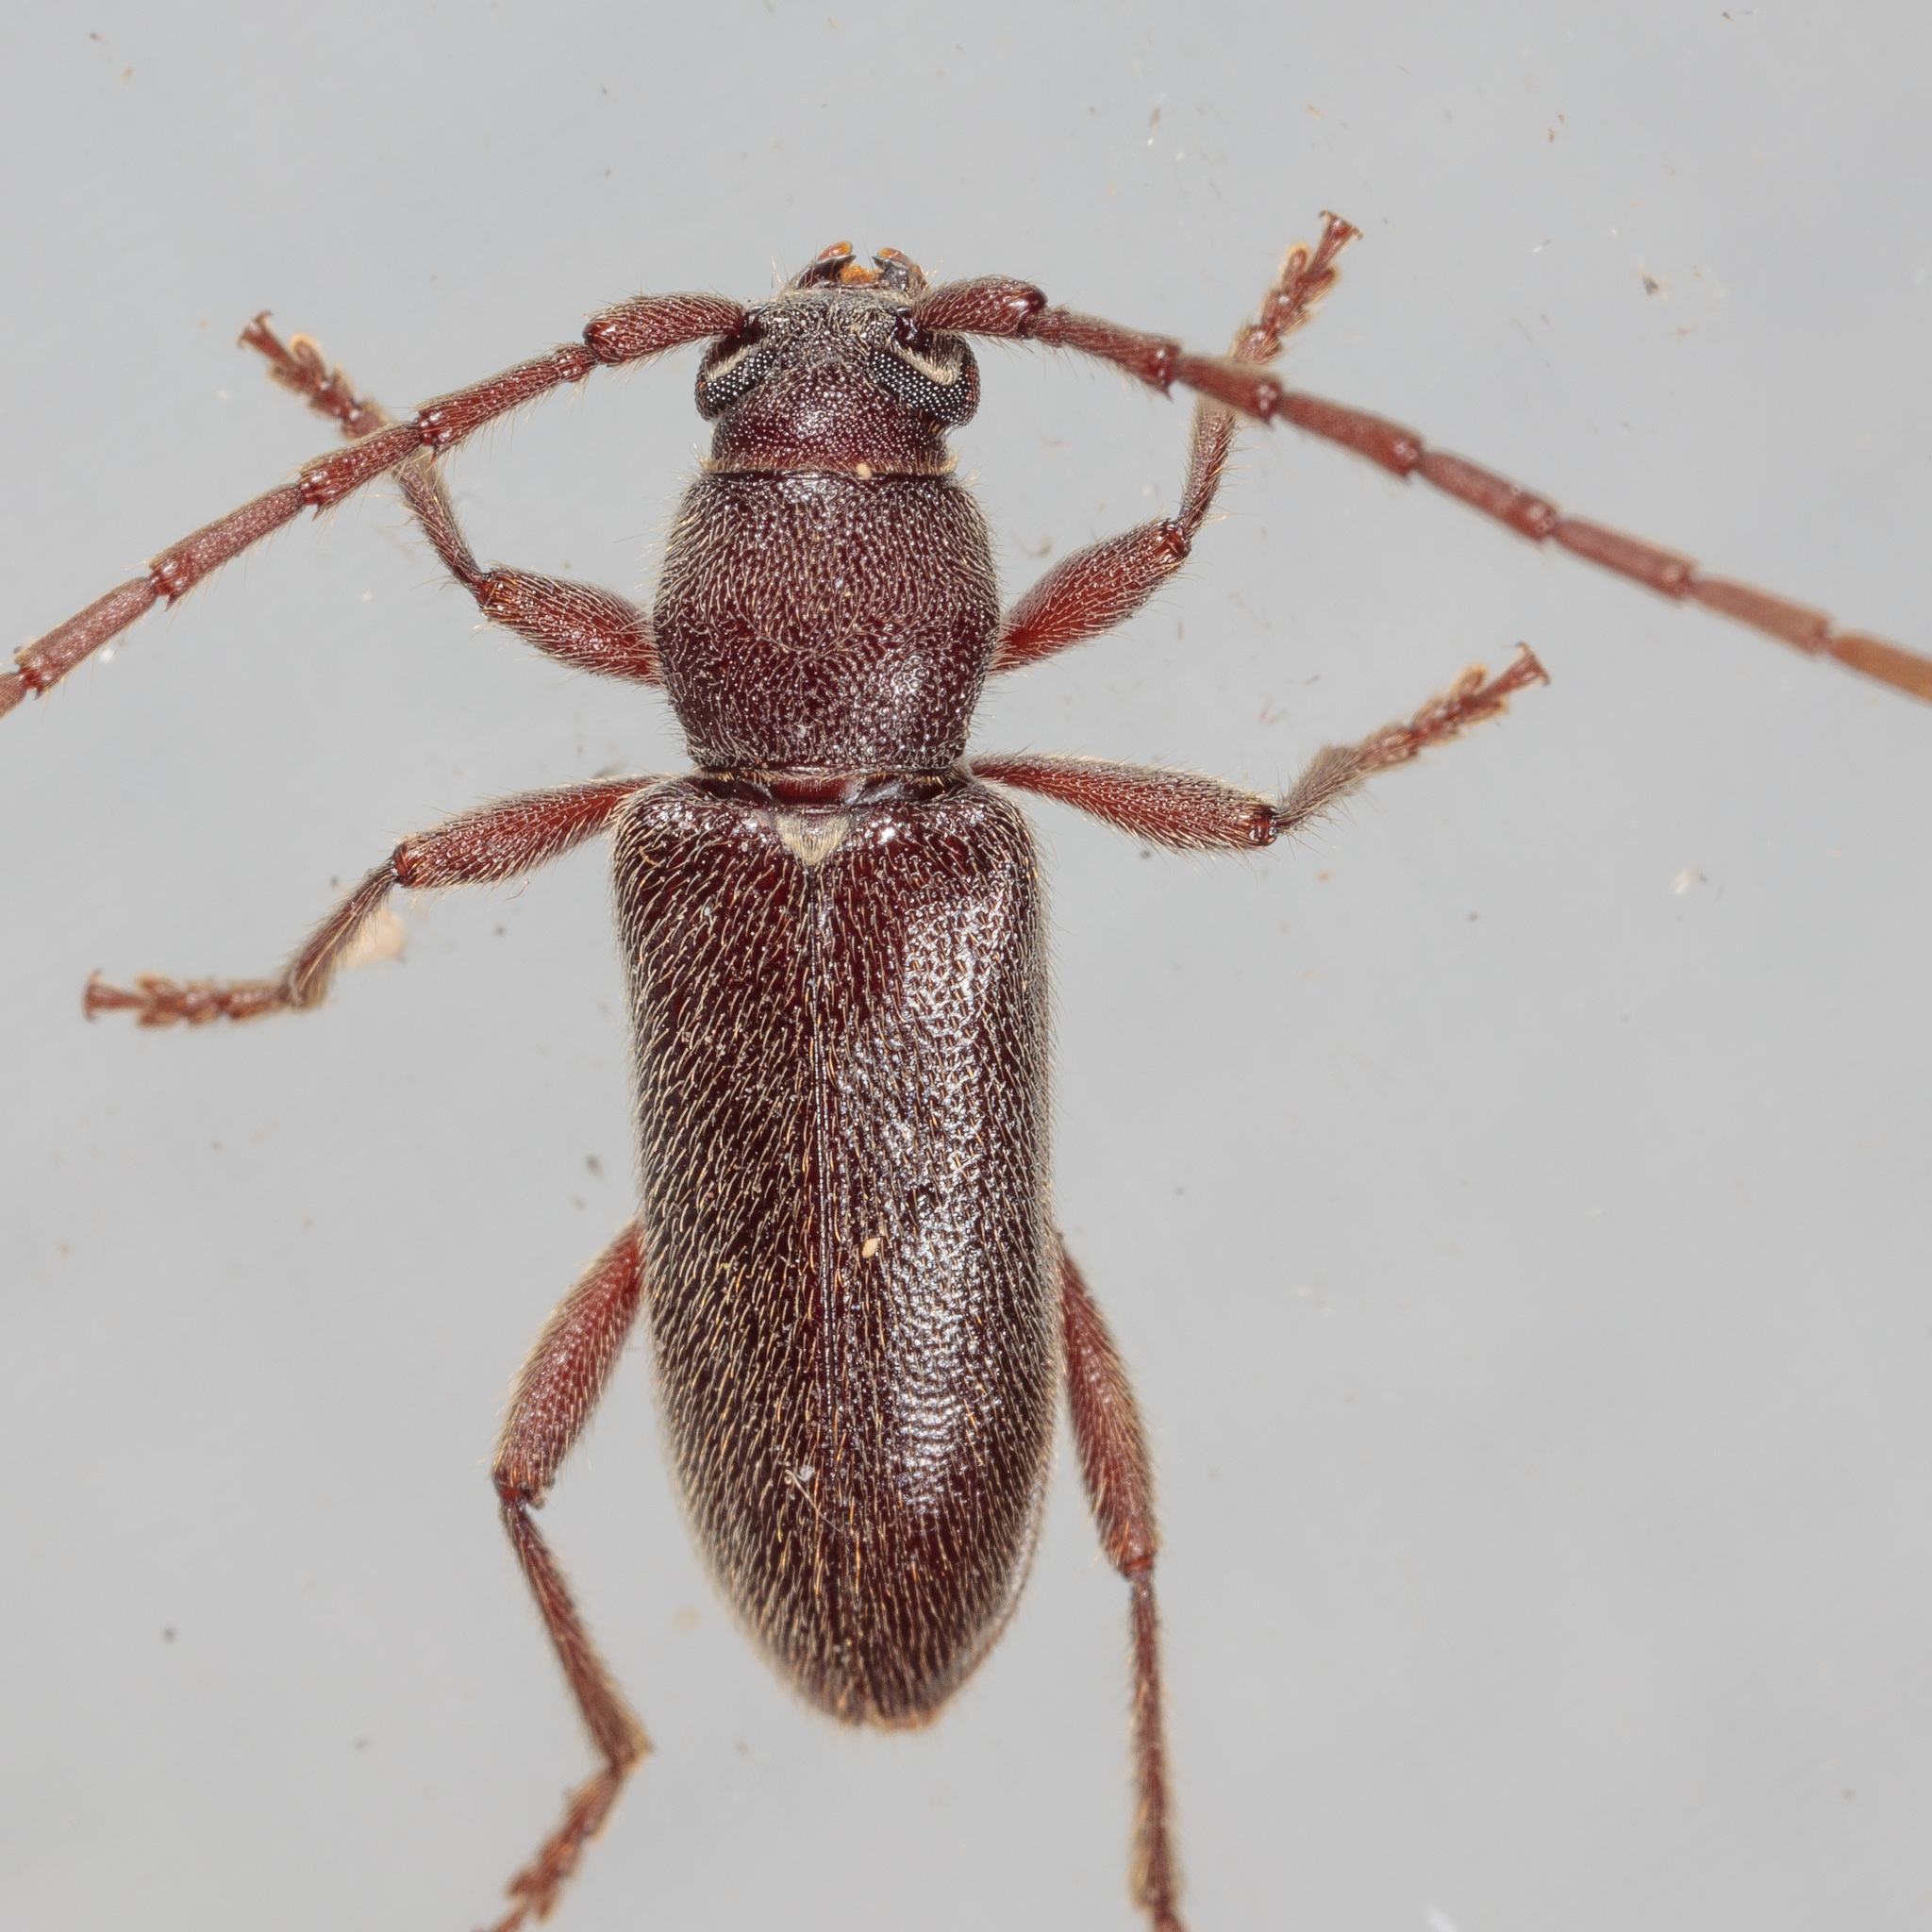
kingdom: Animalia
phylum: Arthropoda
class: Insecta
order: Coleoptera
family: Cerambycidae
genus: Anelaphus
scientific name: Anelaphus moestus
